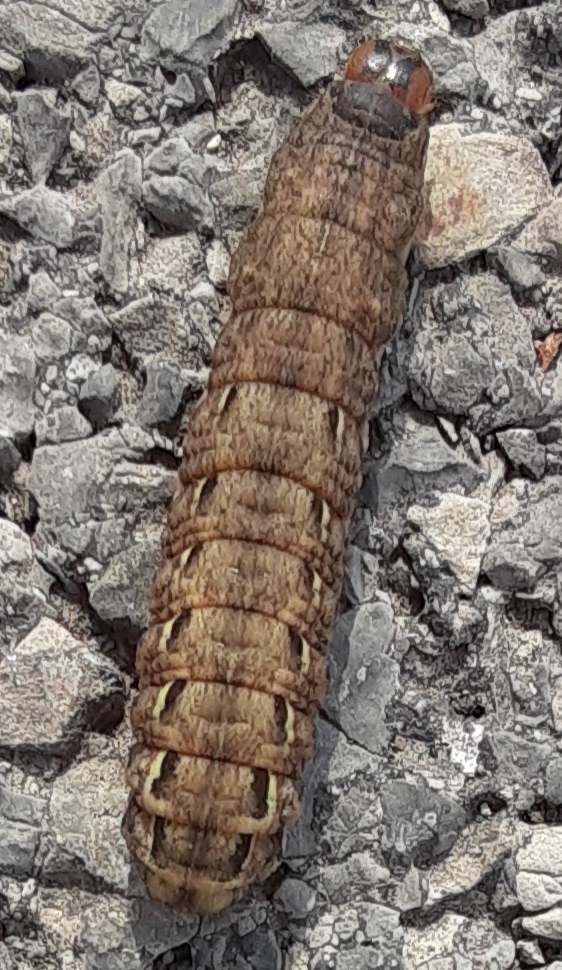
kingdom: Animalia
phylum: Arthropoda
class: Insecta
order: Lepidoptera
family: Noctuidae
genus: Noctua
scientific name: Noctua pronuba
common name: Large yellow underwing
